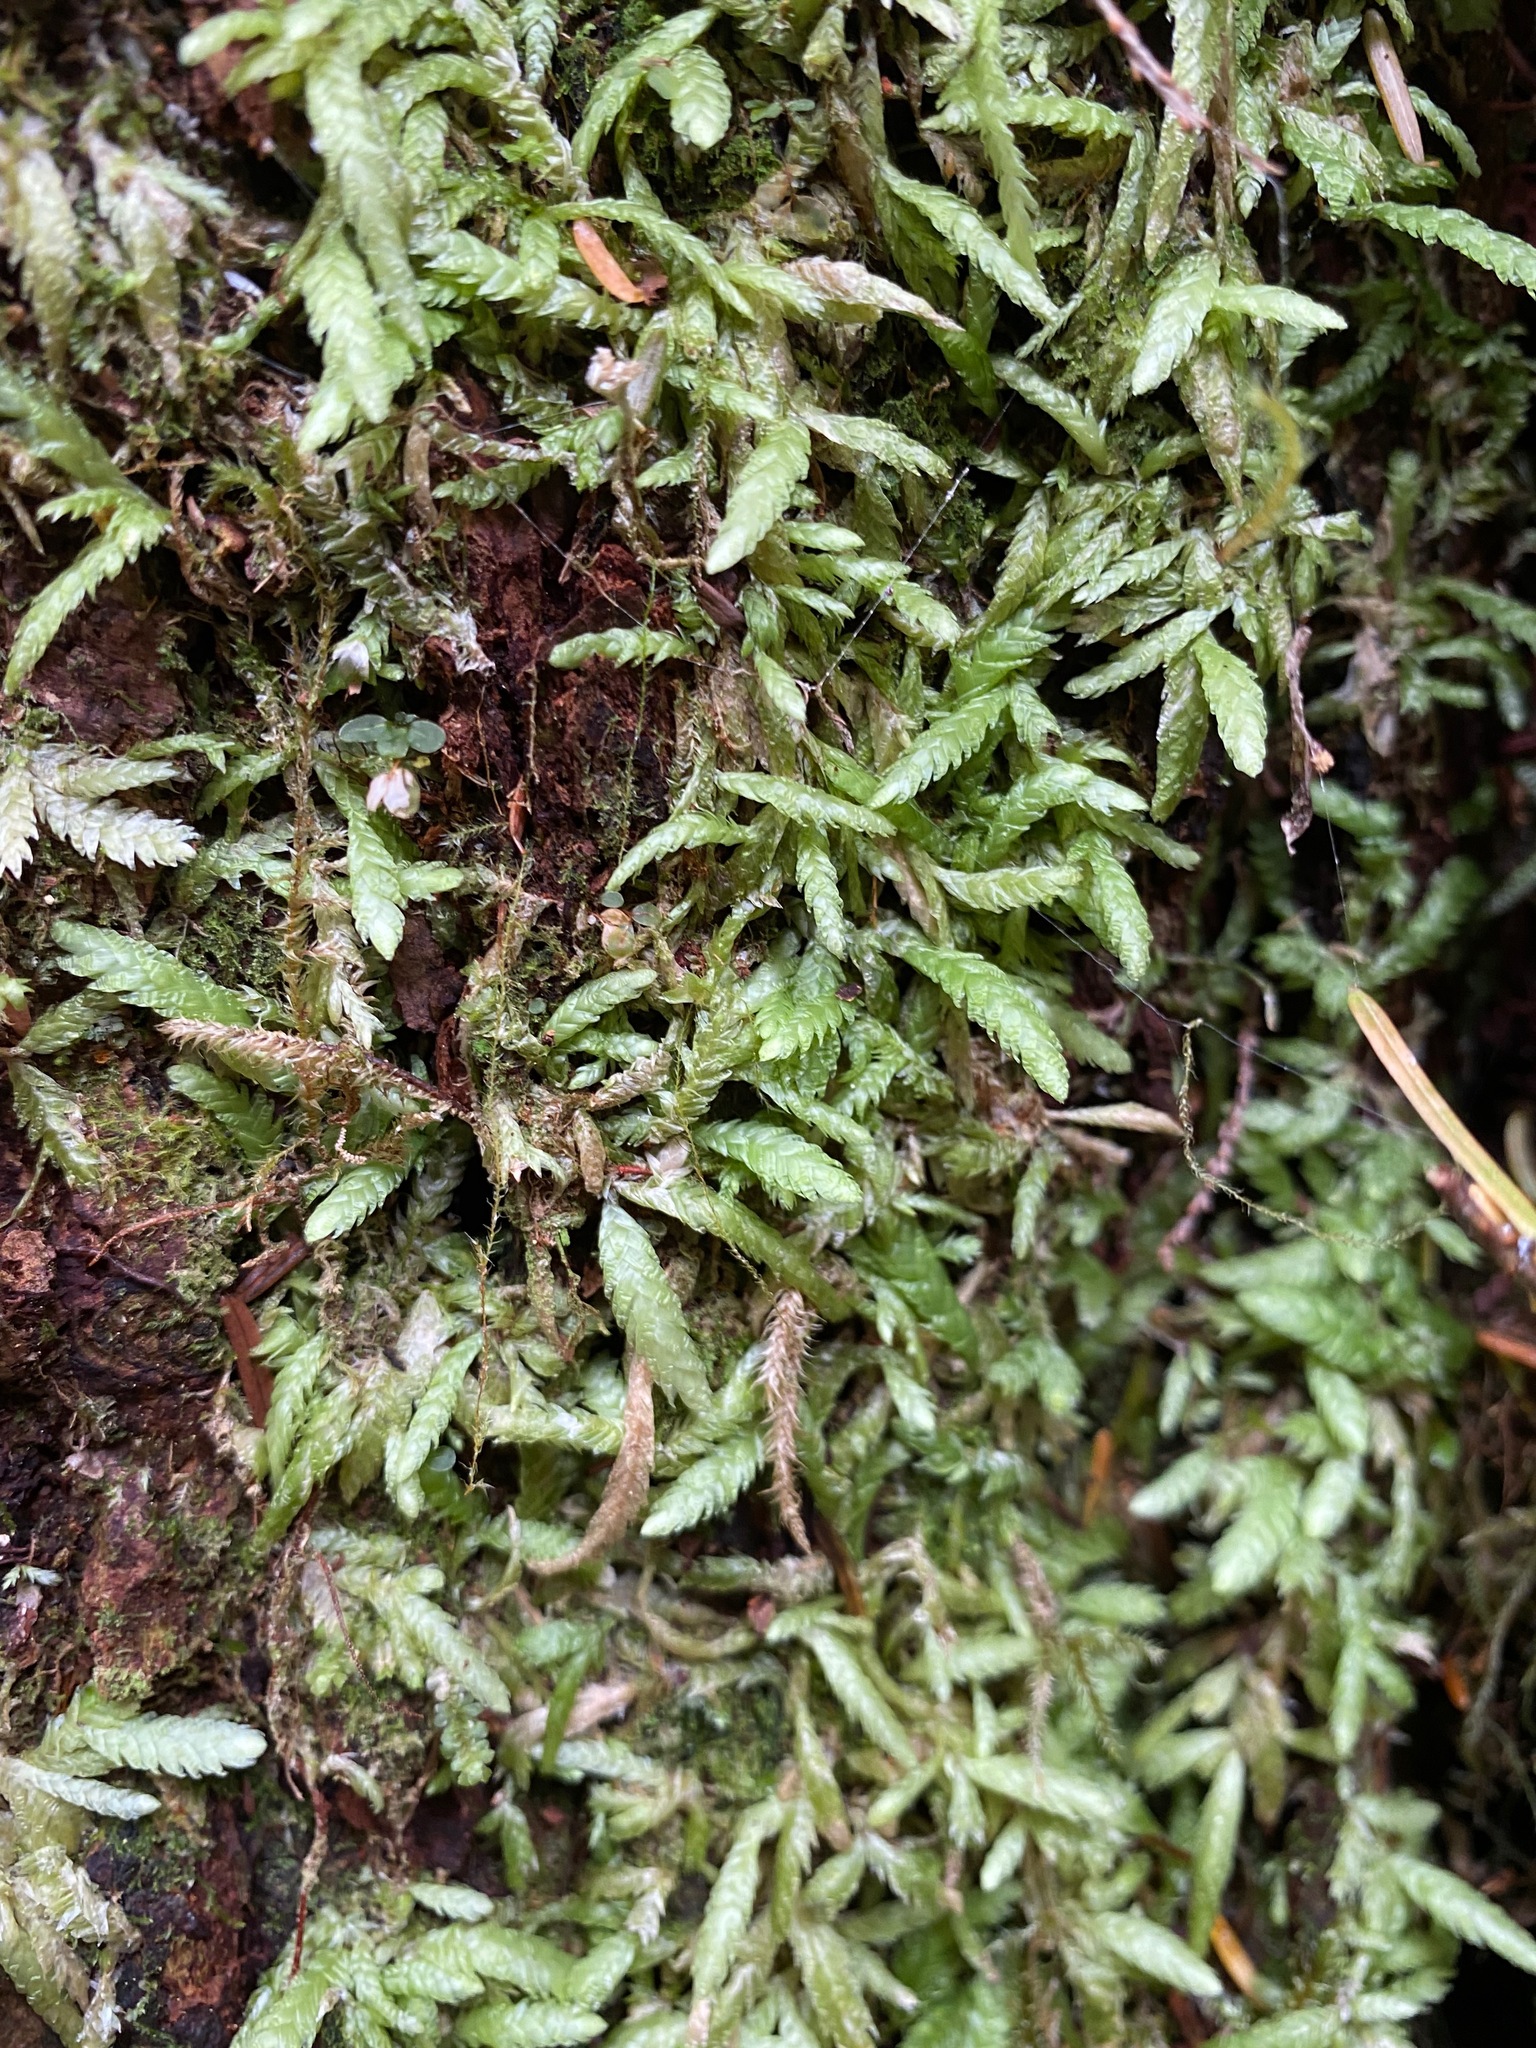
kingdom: Plantae
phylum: Bryophyta
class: Bryopsida
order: Hypnales
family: Plagiotheciaceae
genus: Plagiothecium
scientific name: Plagiothecium undulatum
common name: Waved silk-moss
